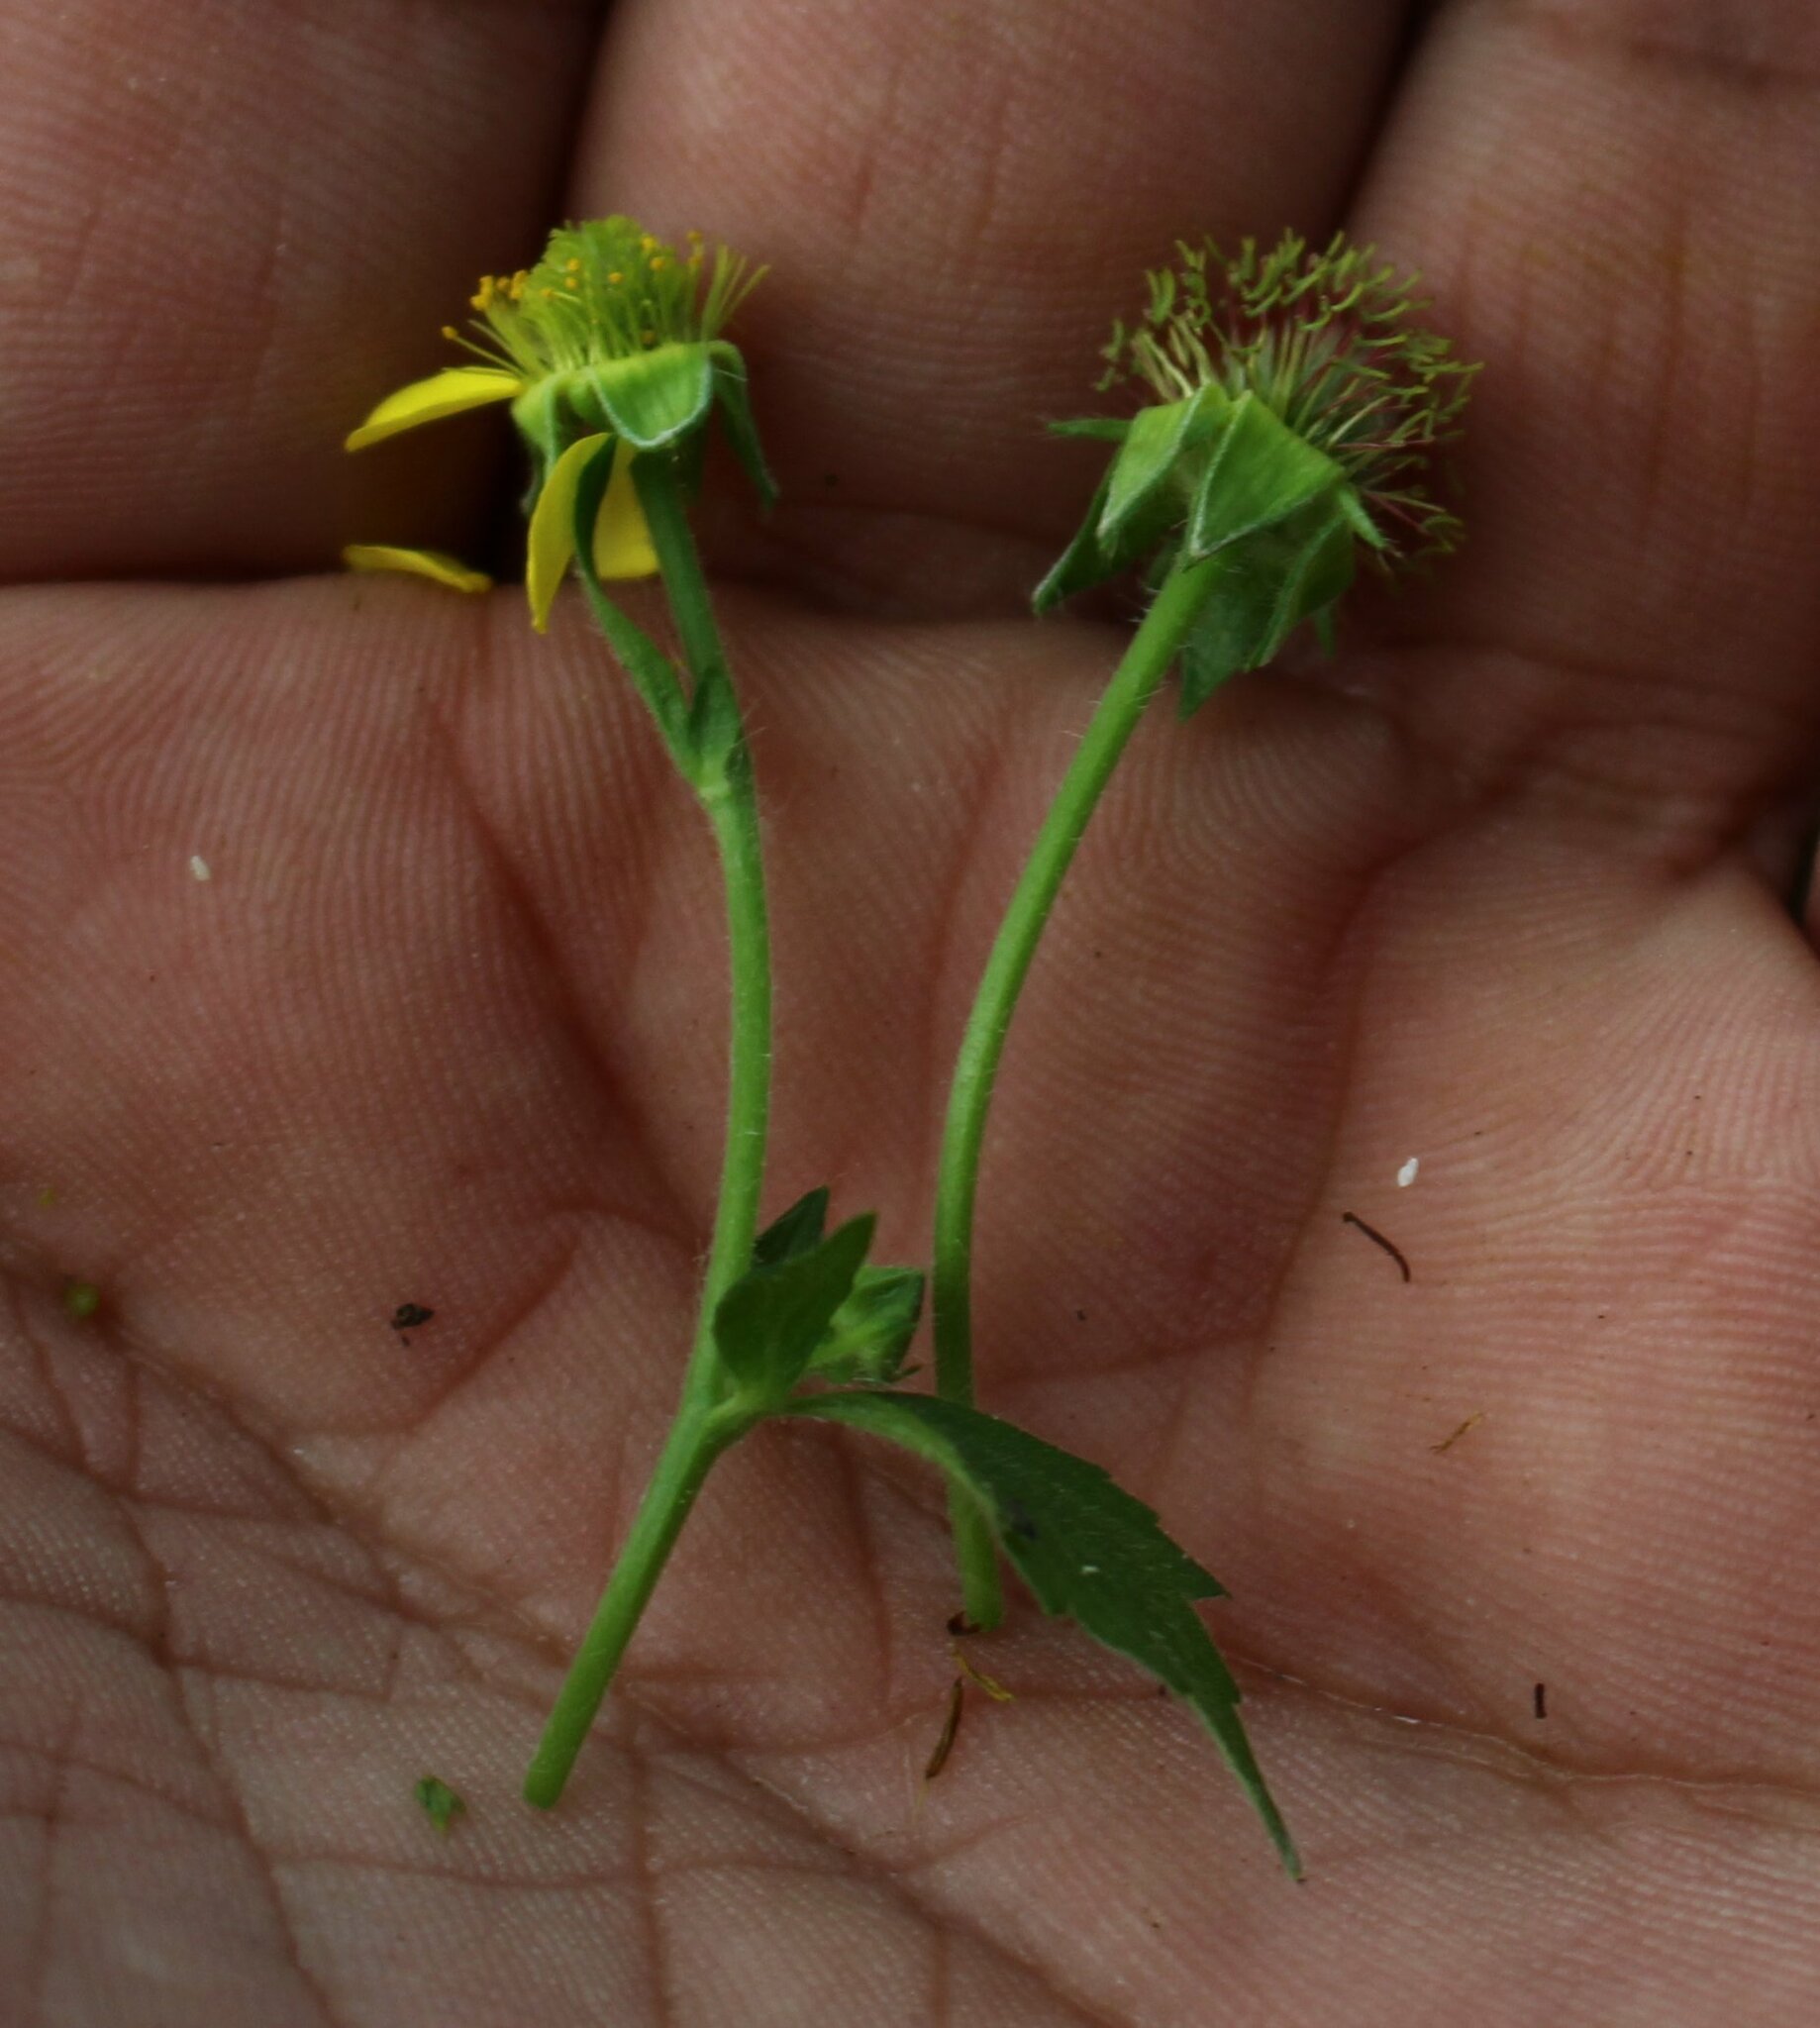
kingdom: Plantae
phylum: Tracheophyta
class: Magnoliopsida
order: Rosales
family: Rosaceae
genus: Geum
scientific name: Geum urbanum
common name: Wood avens
